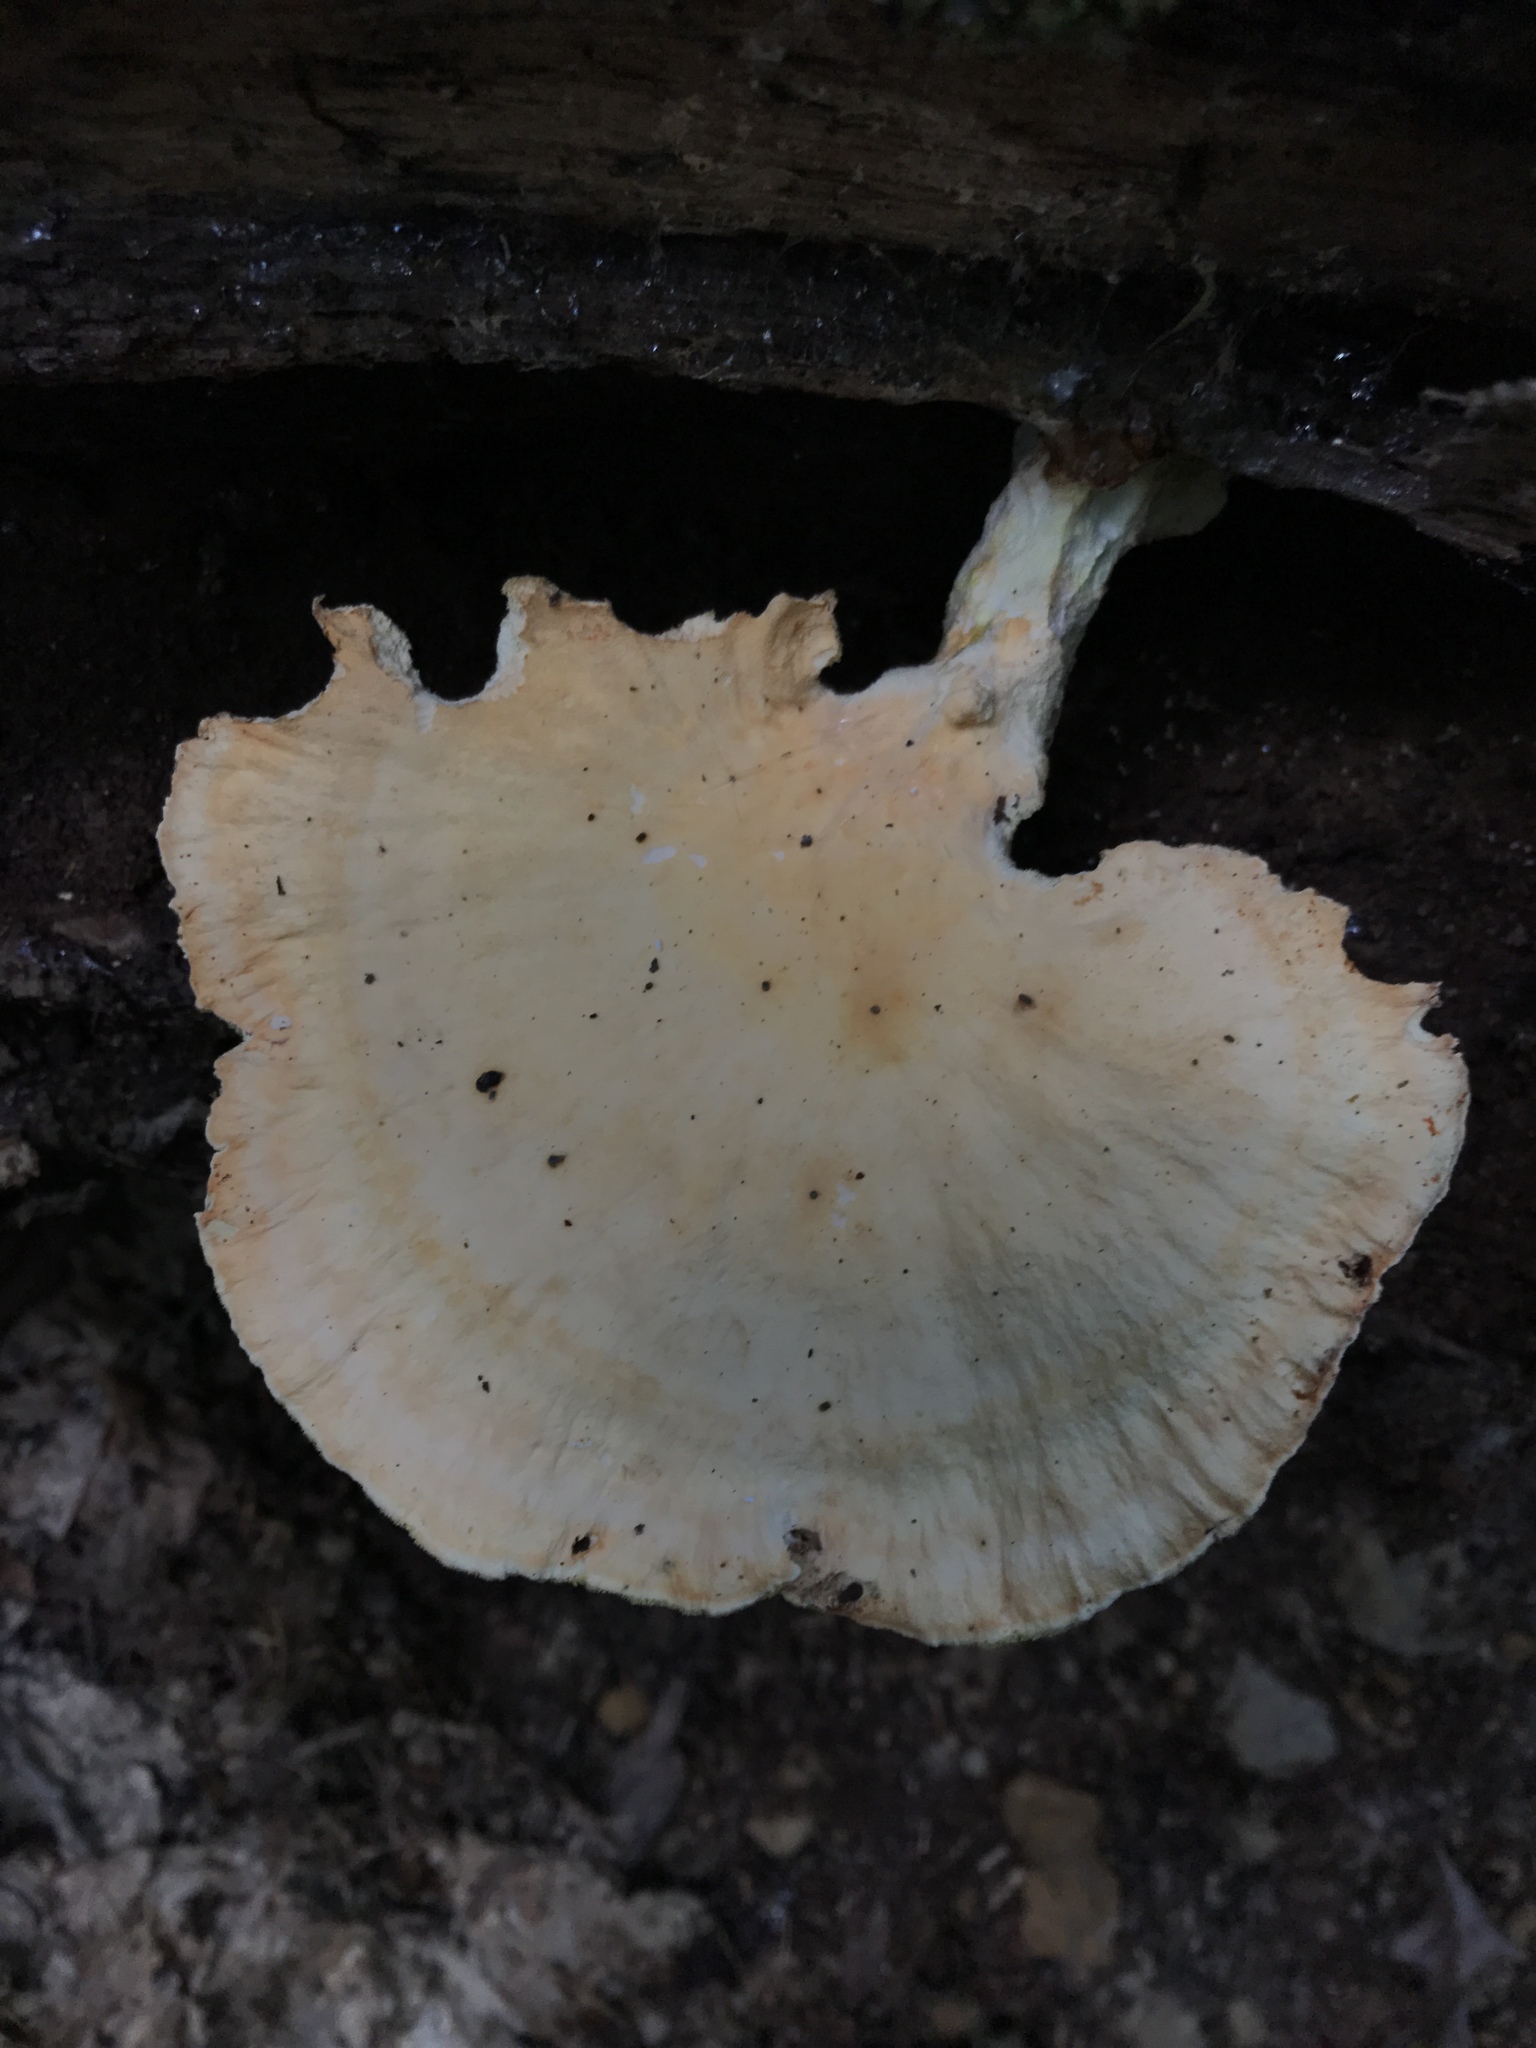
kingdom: Fungi
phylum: Basidiomycota
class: Agaricomycetes
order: Polyporales
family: Laetiporaceae
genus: Laetiporus
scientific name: Laetiporus sulphureus
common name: Chicken of the woods
